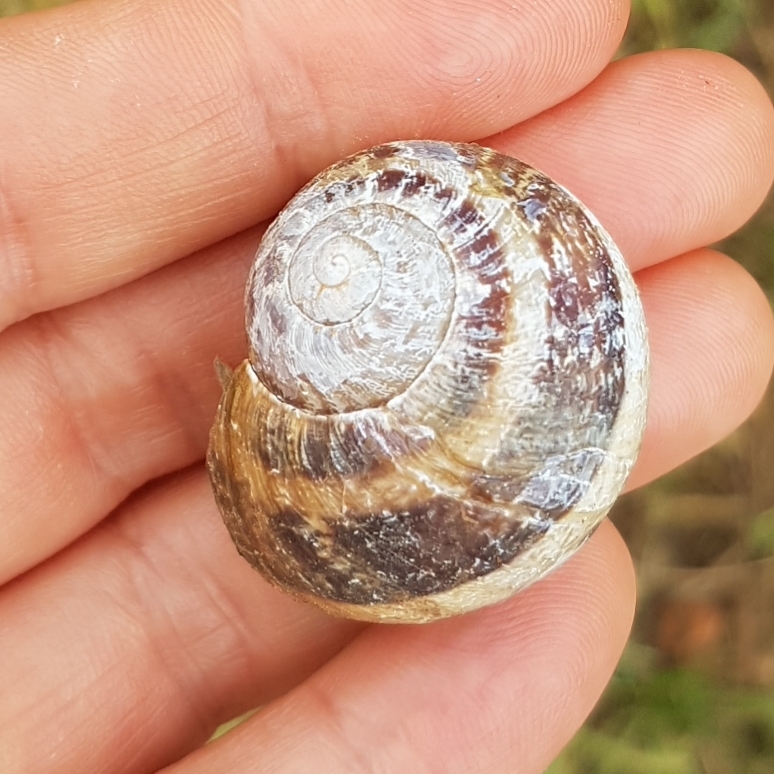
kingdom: Animalia
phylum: Mollusca
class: Gastropoda
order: Stylommatophora
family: Helicidae
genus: Cornu
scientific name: Cornu aspersum
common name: Brown garden snail
